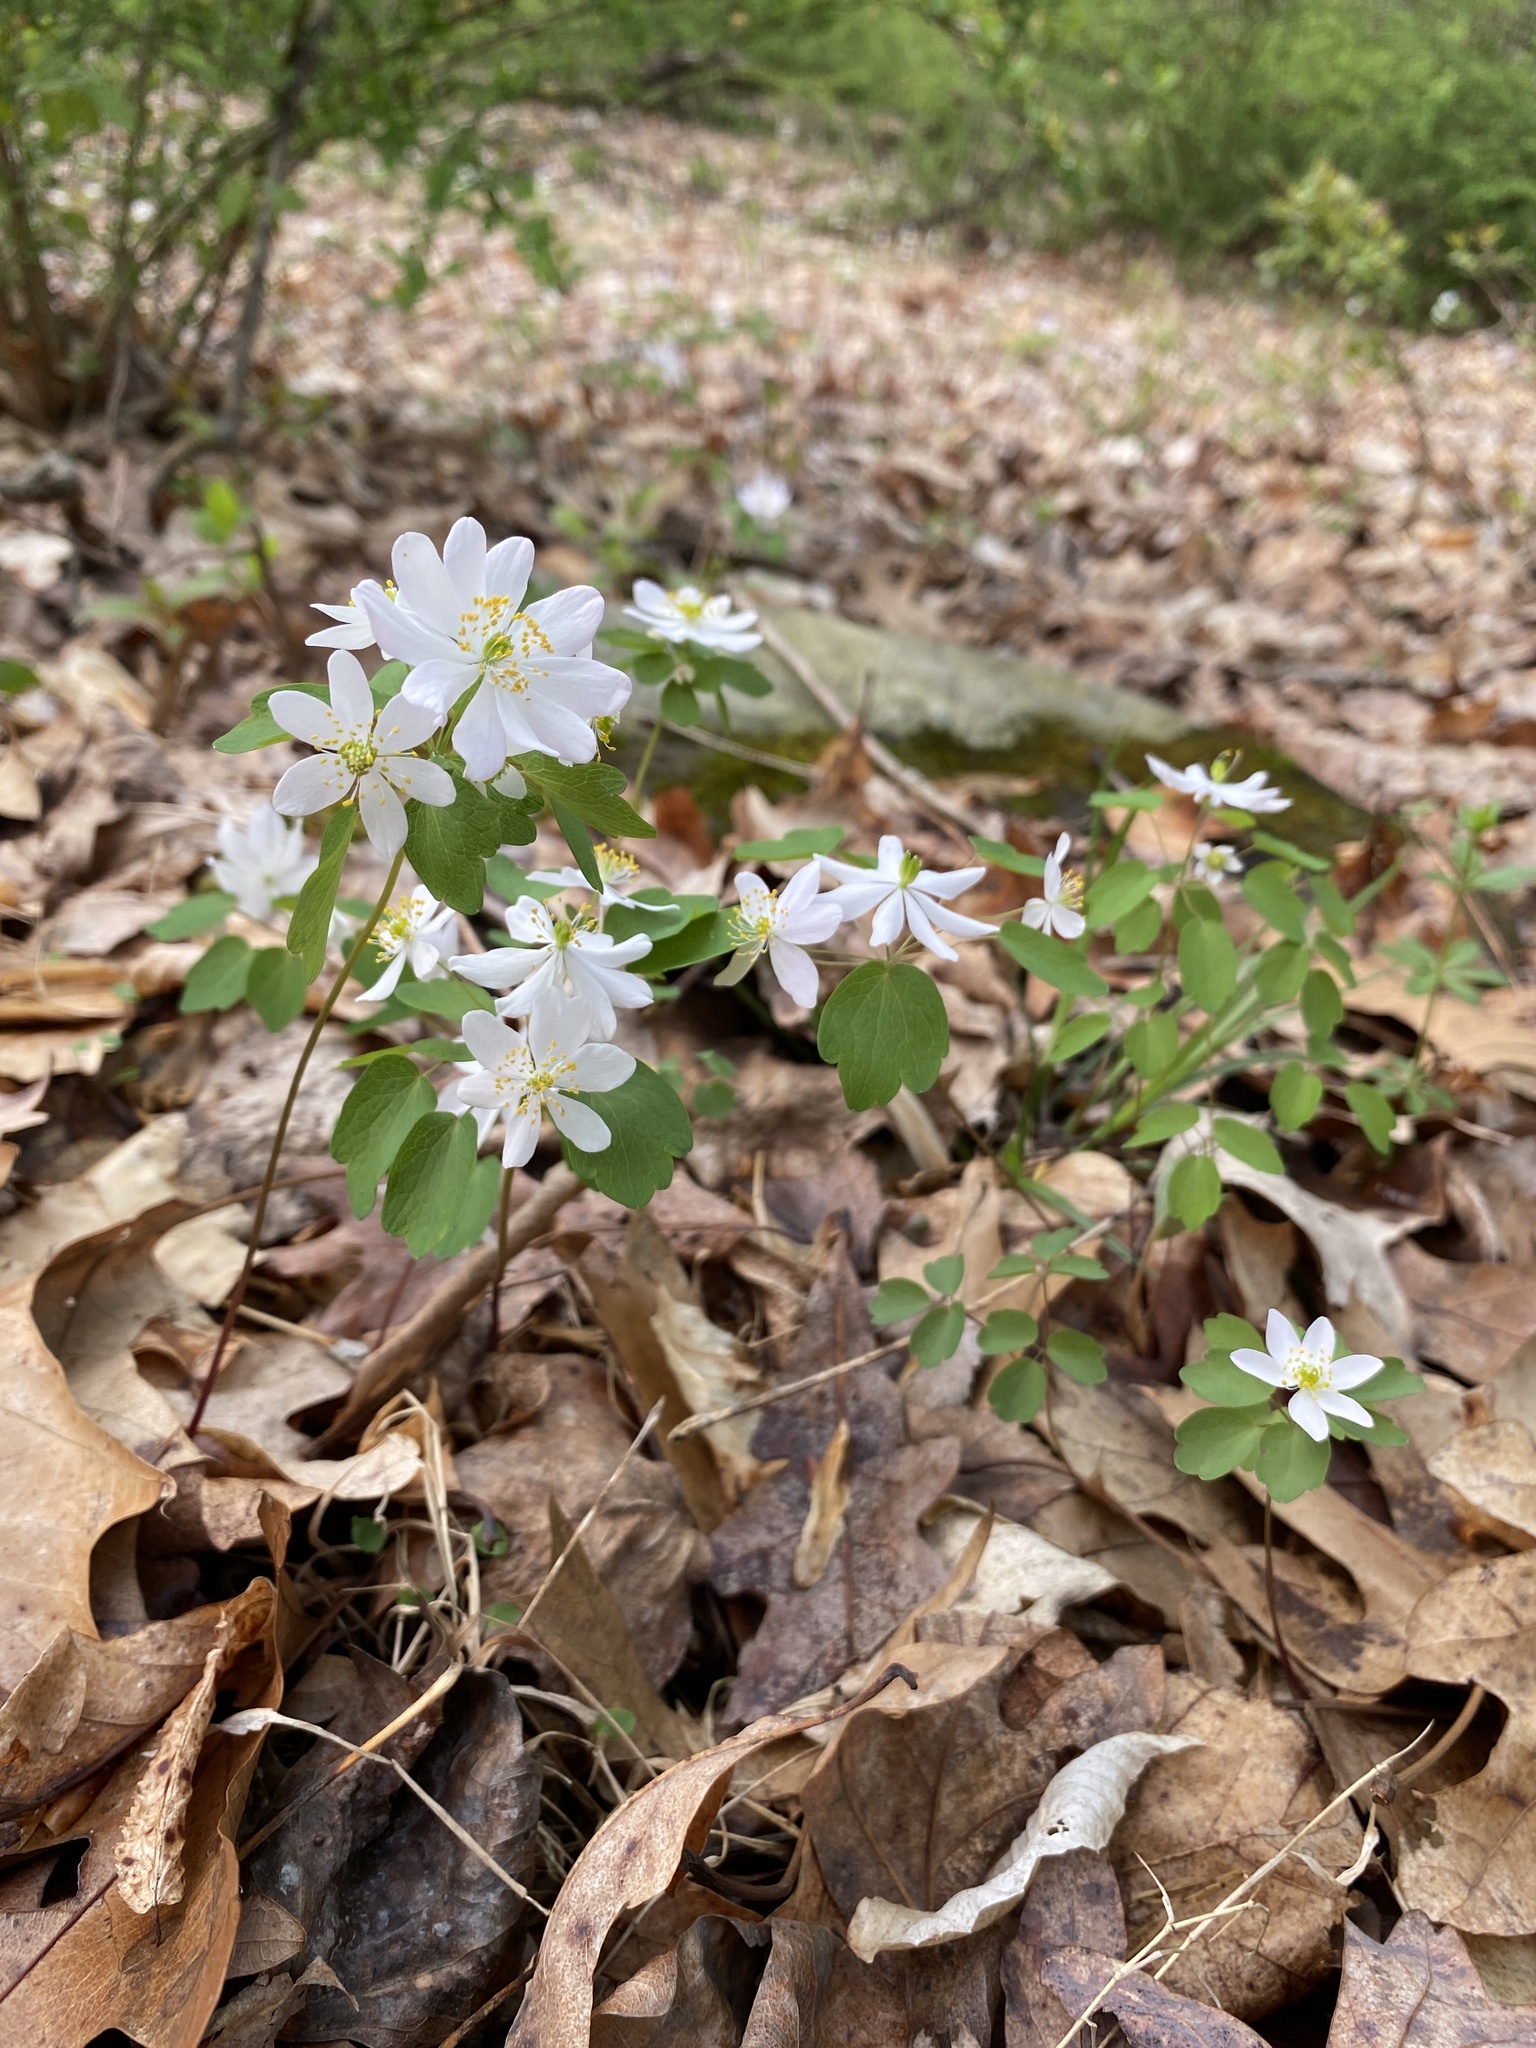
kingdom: Plantae
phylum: Tracheophyta
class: Magnoliopsida
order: Ranunculales
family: Ranunculaceae
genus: Thalictrum
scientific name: Thalictrum thalictroides
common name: Rue-anemone
